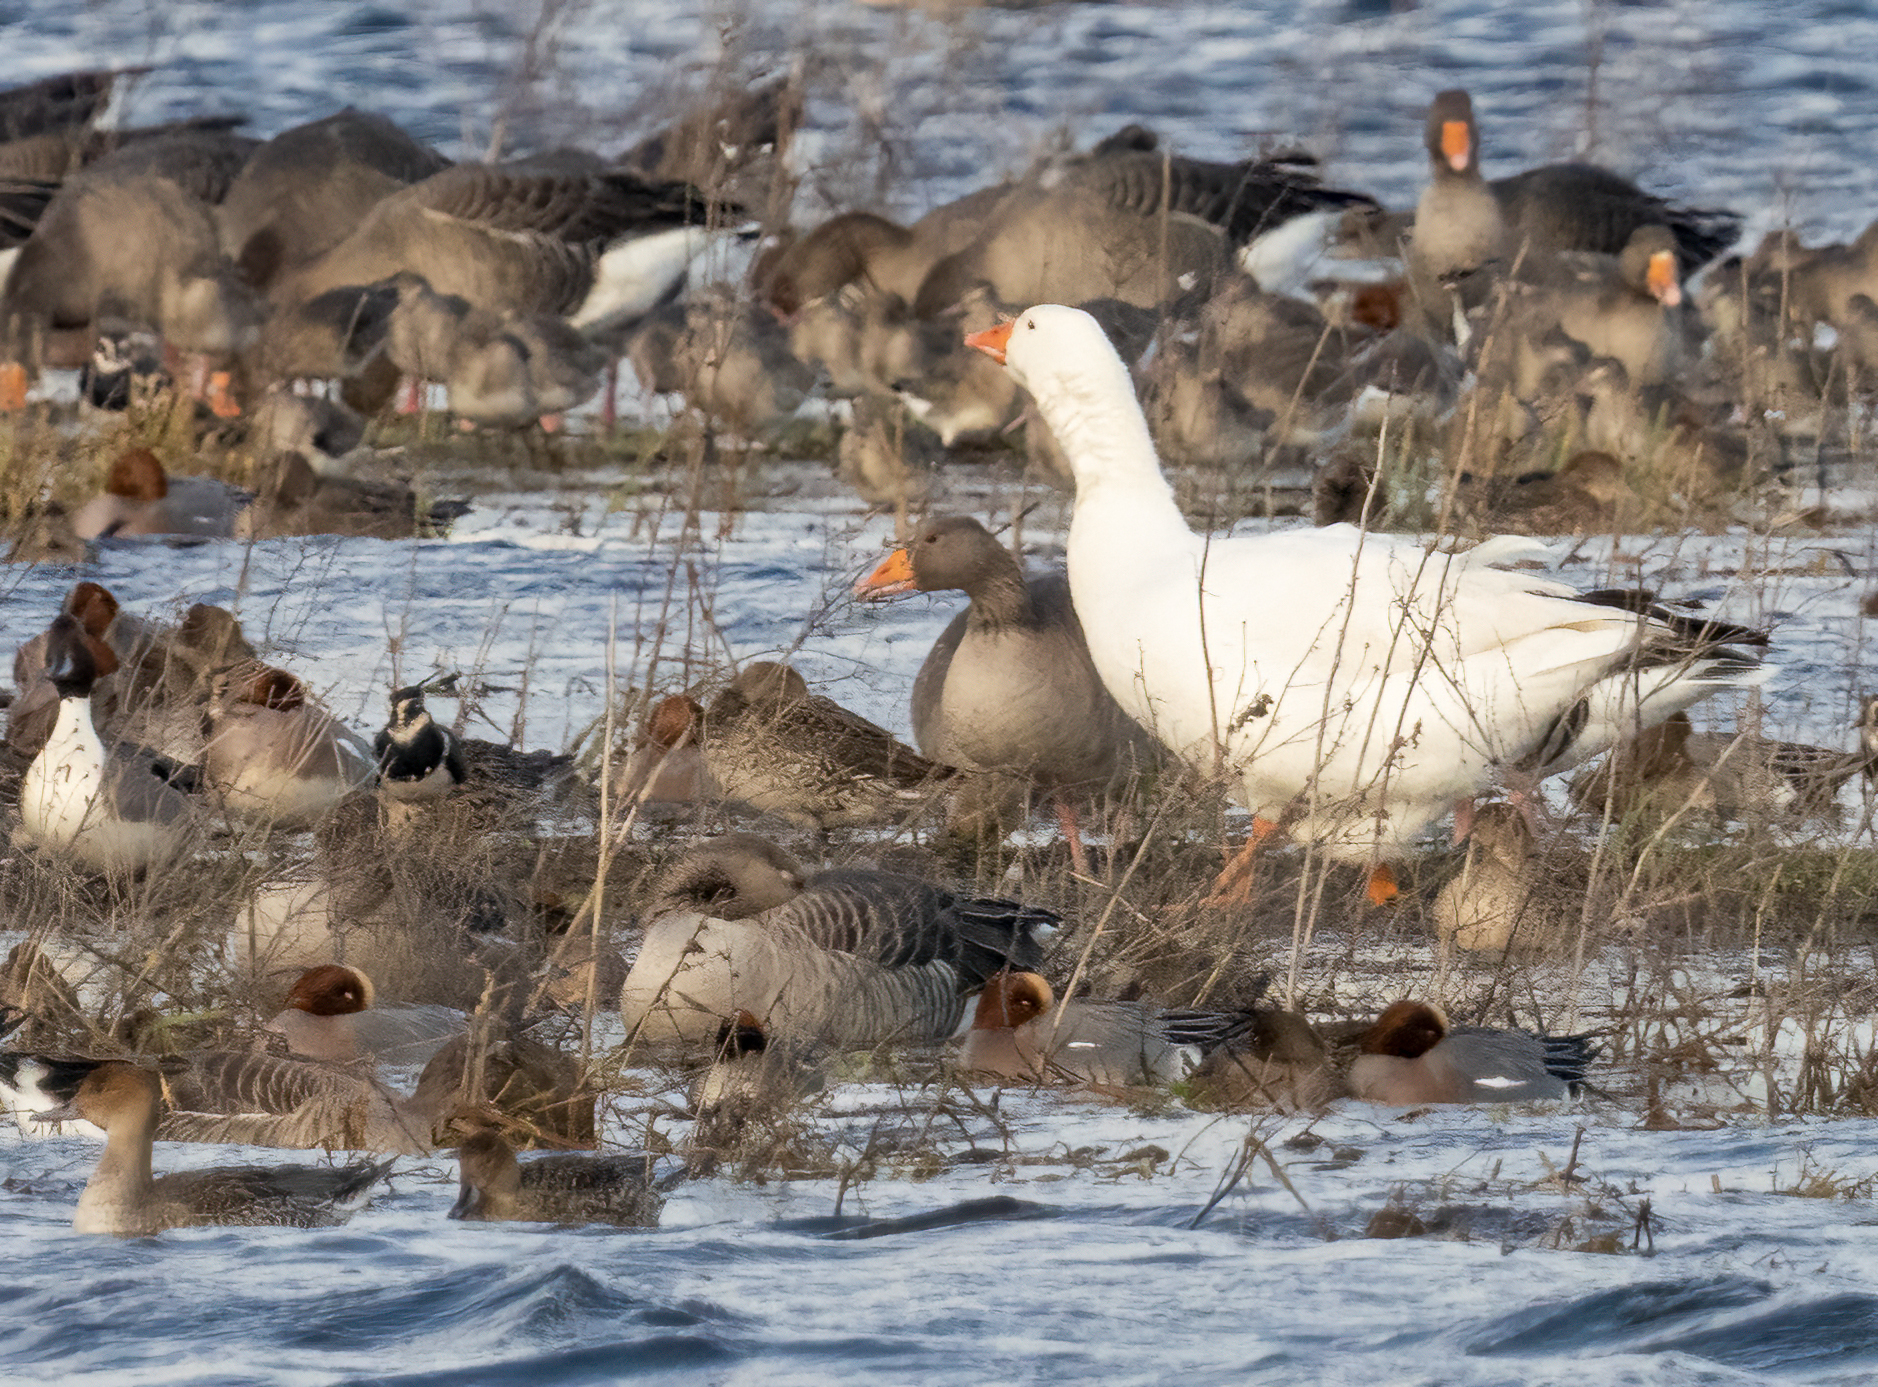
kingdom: Animalia
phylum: Chordata
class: Aves
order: Anseriformes
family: Anatidae
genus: Anser
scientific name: Anser anser
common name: Greylag goose
